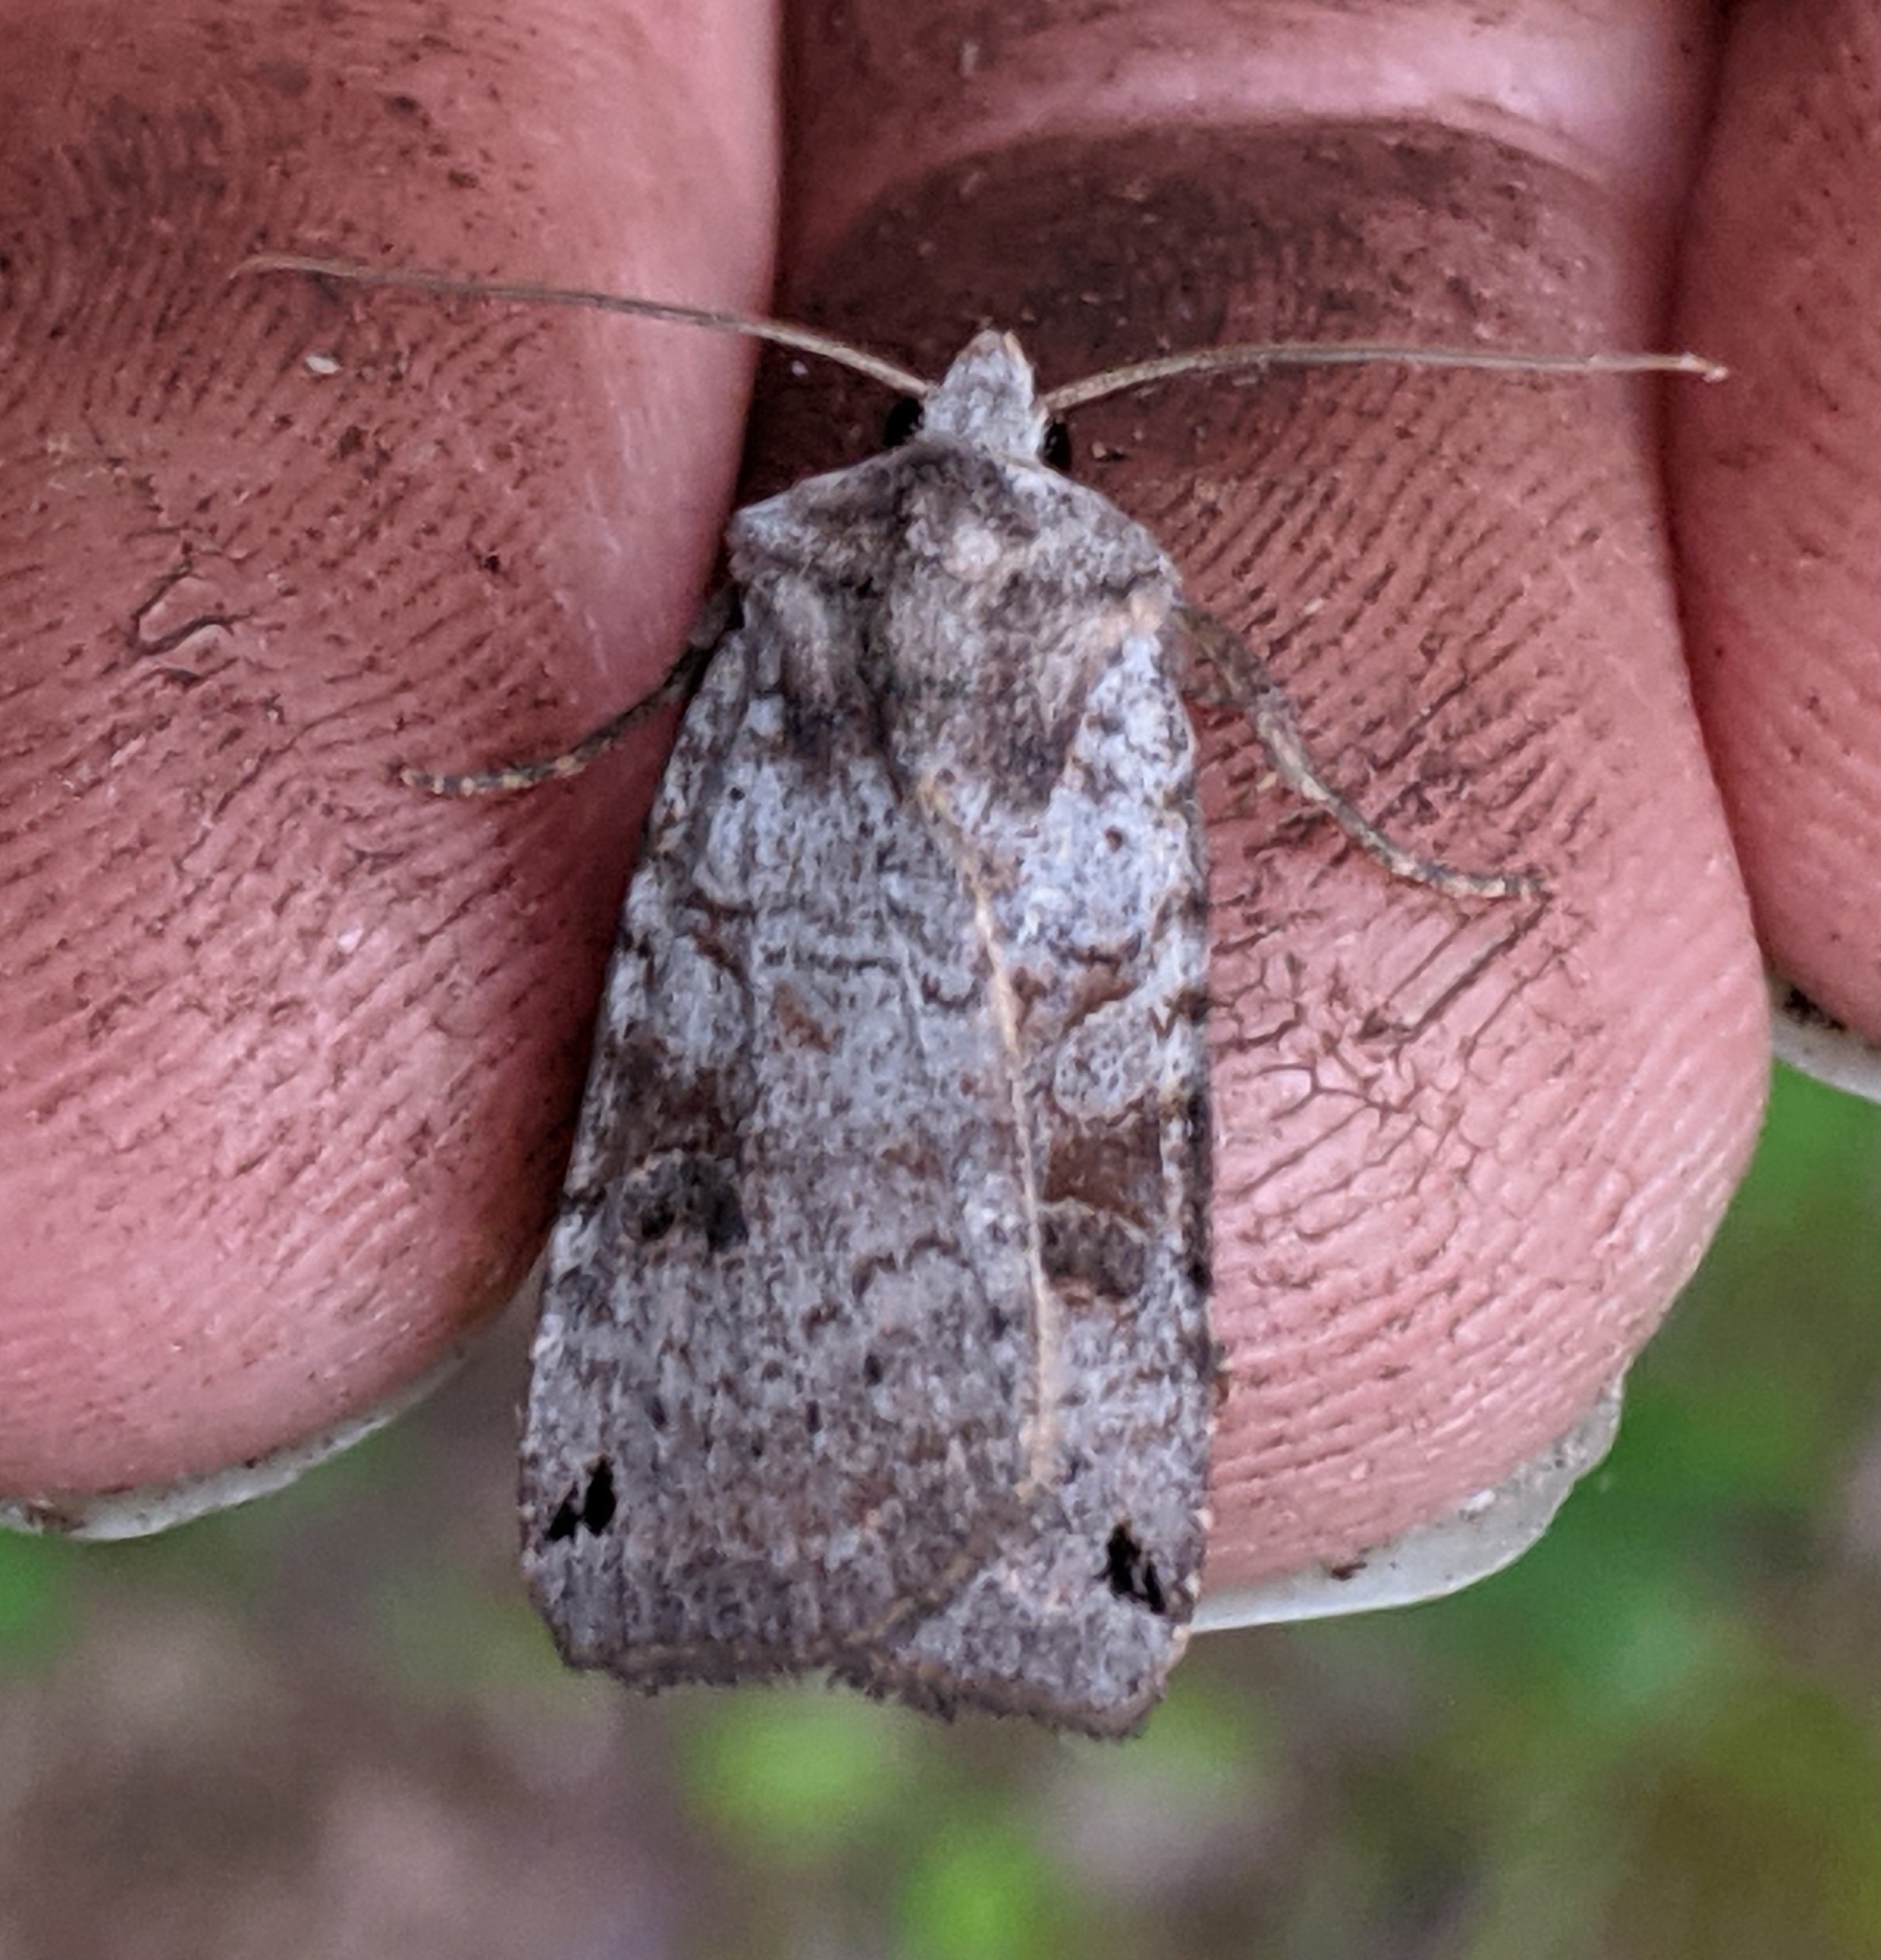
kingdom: Animalia
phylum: Arthropoda
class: Insecta
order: Lepidoptera
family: Noctuidae
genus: Xestia
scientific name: Xestia smithii
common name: Smith's dart
